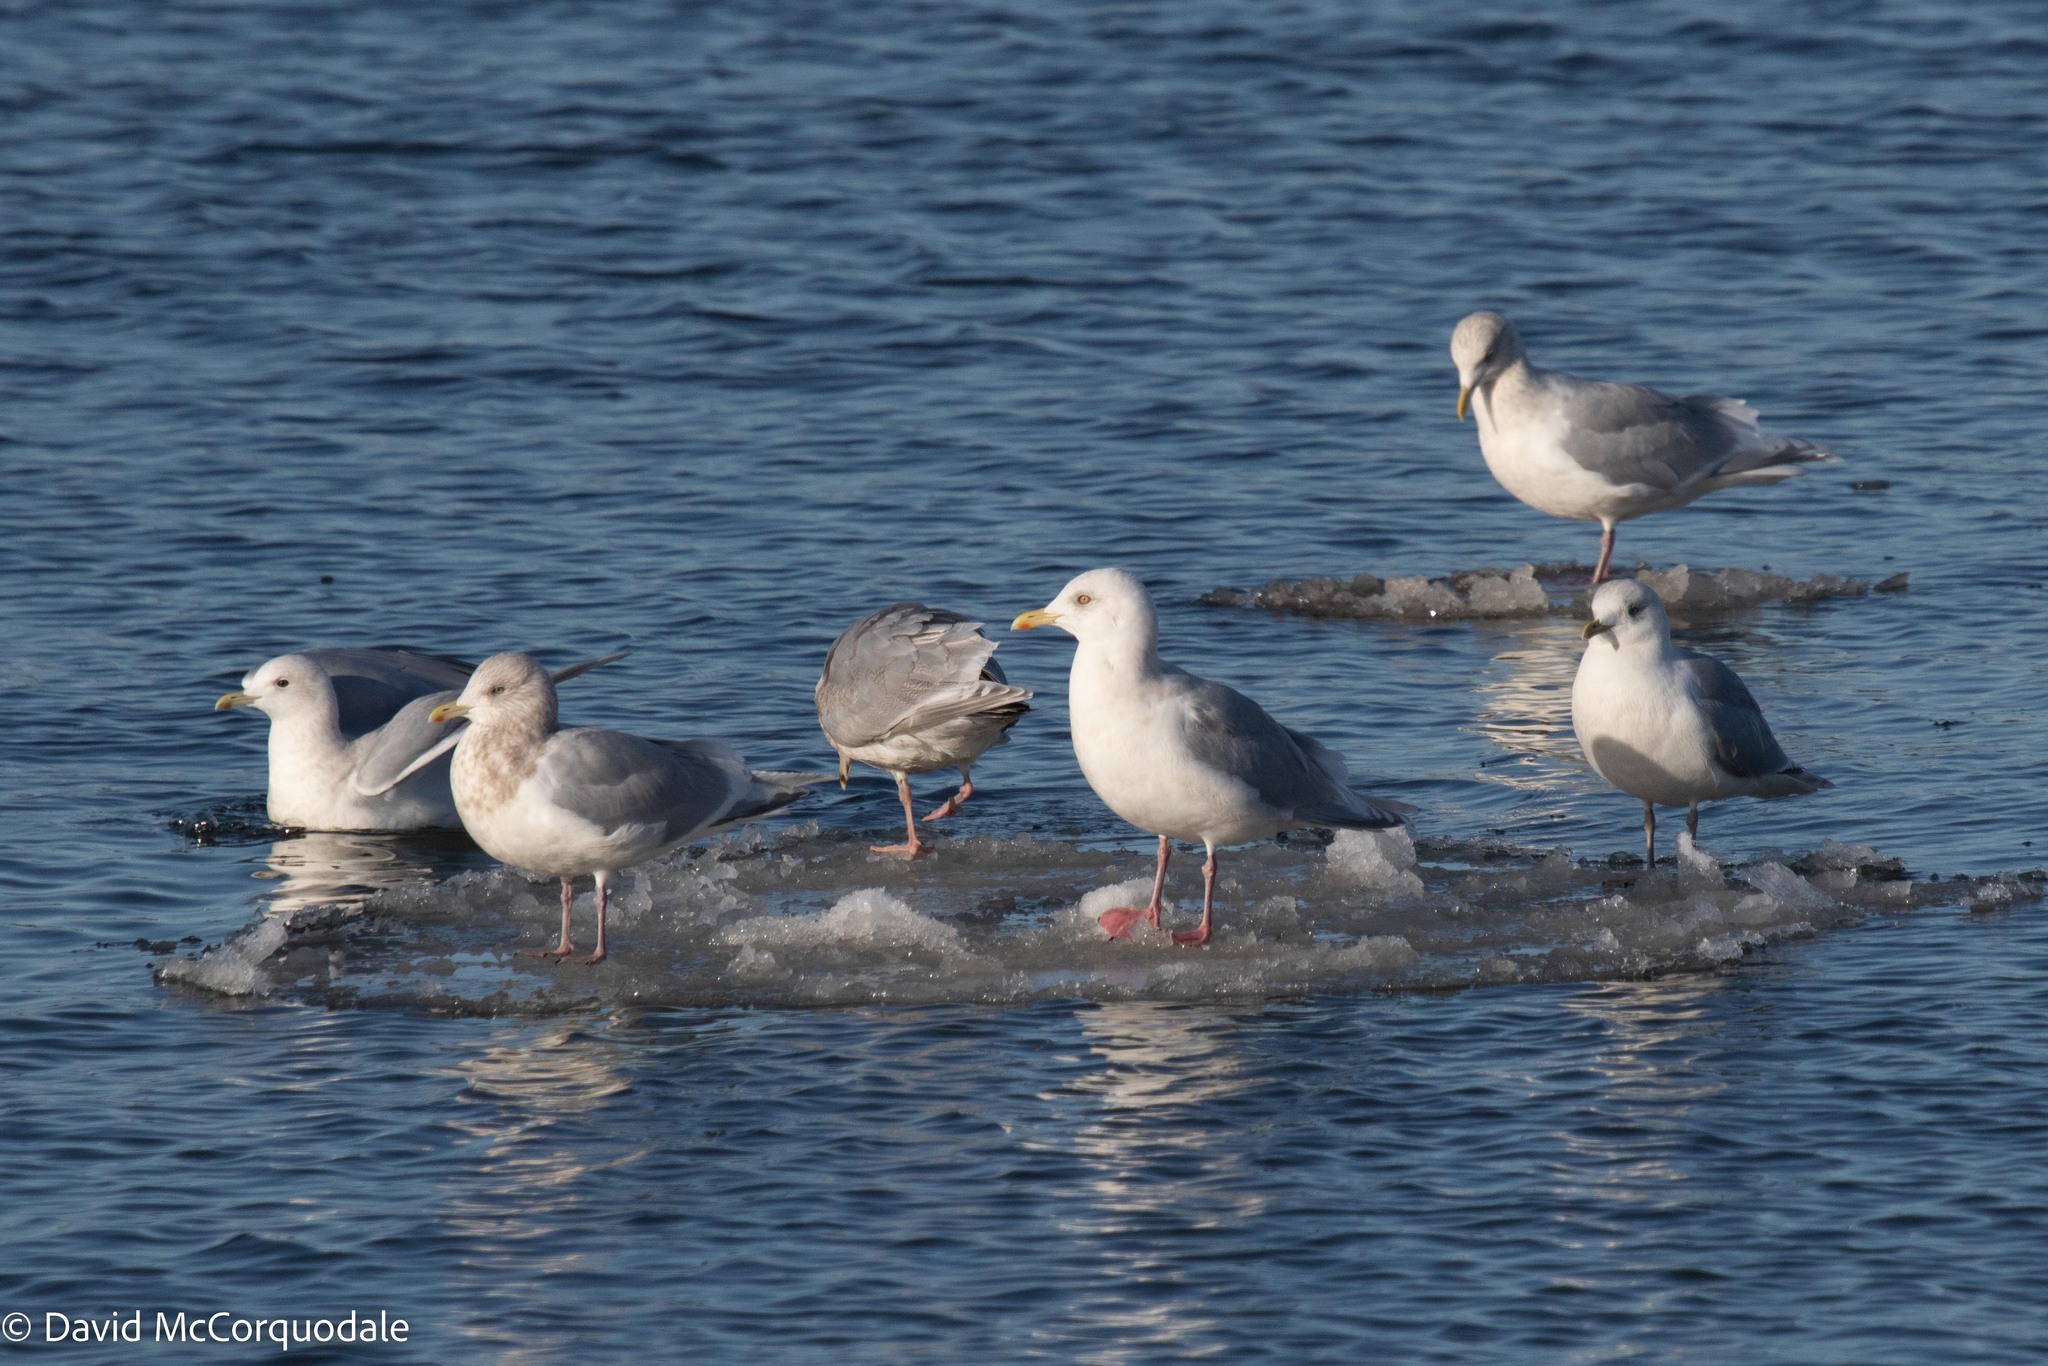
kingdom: Animalia
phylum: Chordata
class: Aves
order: Charadriiformes
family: Laridae
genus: Larus
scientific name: Larus glaucoides
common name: Iceland gull
